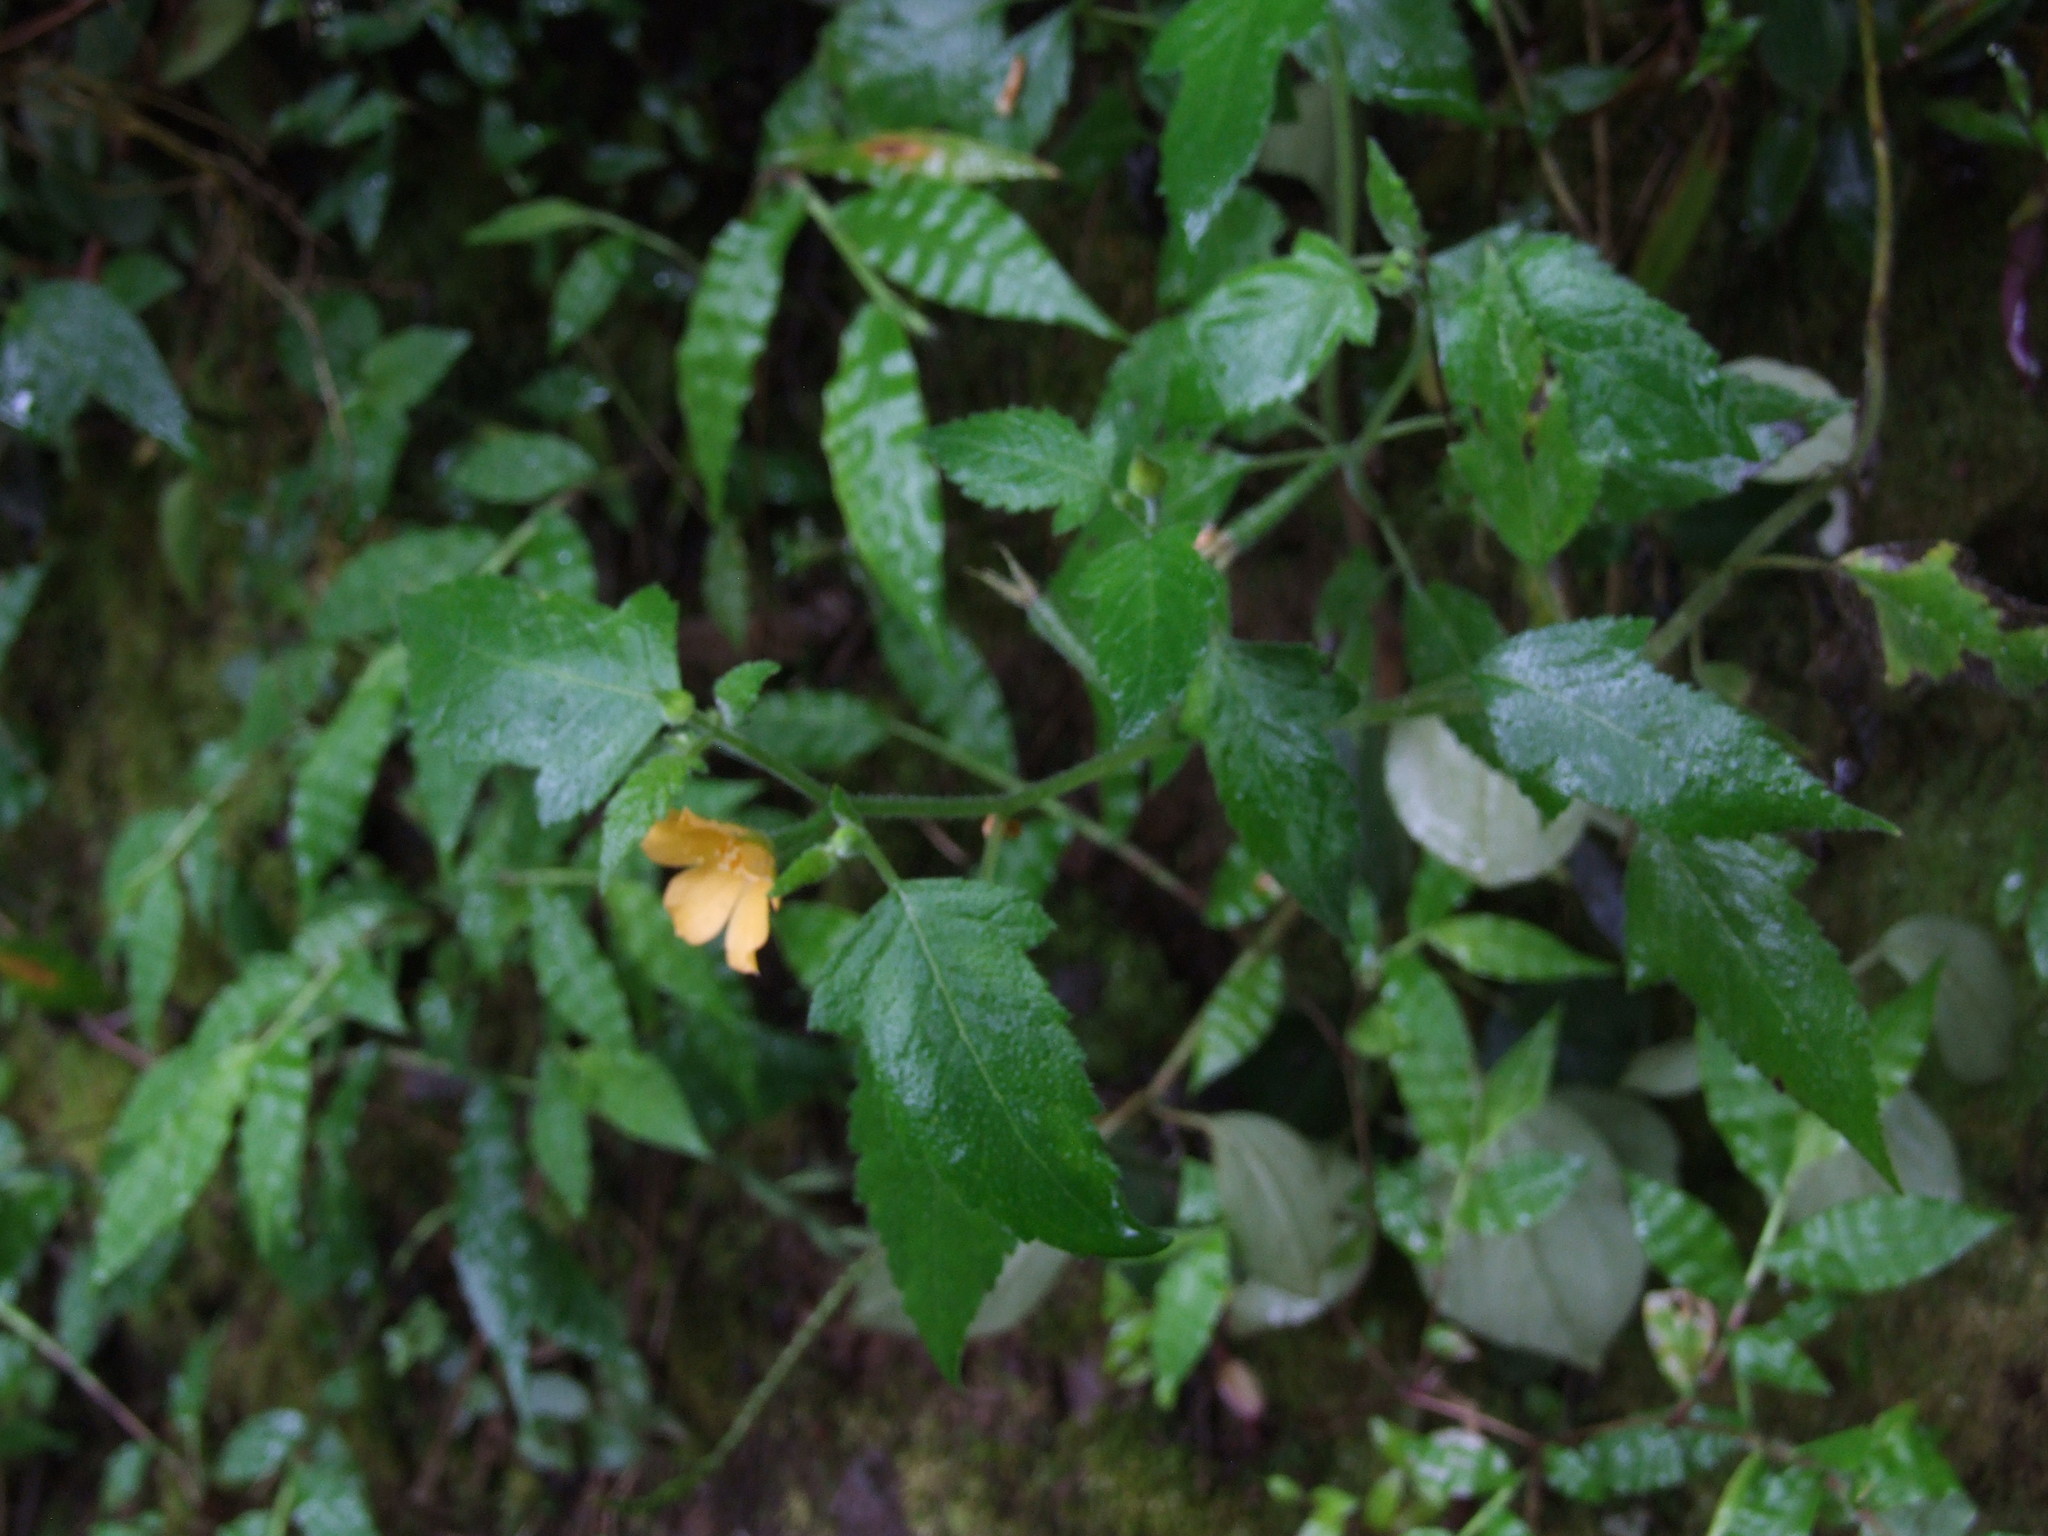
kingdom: Plantae
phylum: Tracheophyta
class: Magnoliopsida
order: Cornales
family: Loasaceae
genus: Mentzelia
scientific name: Mentzelia aspera
